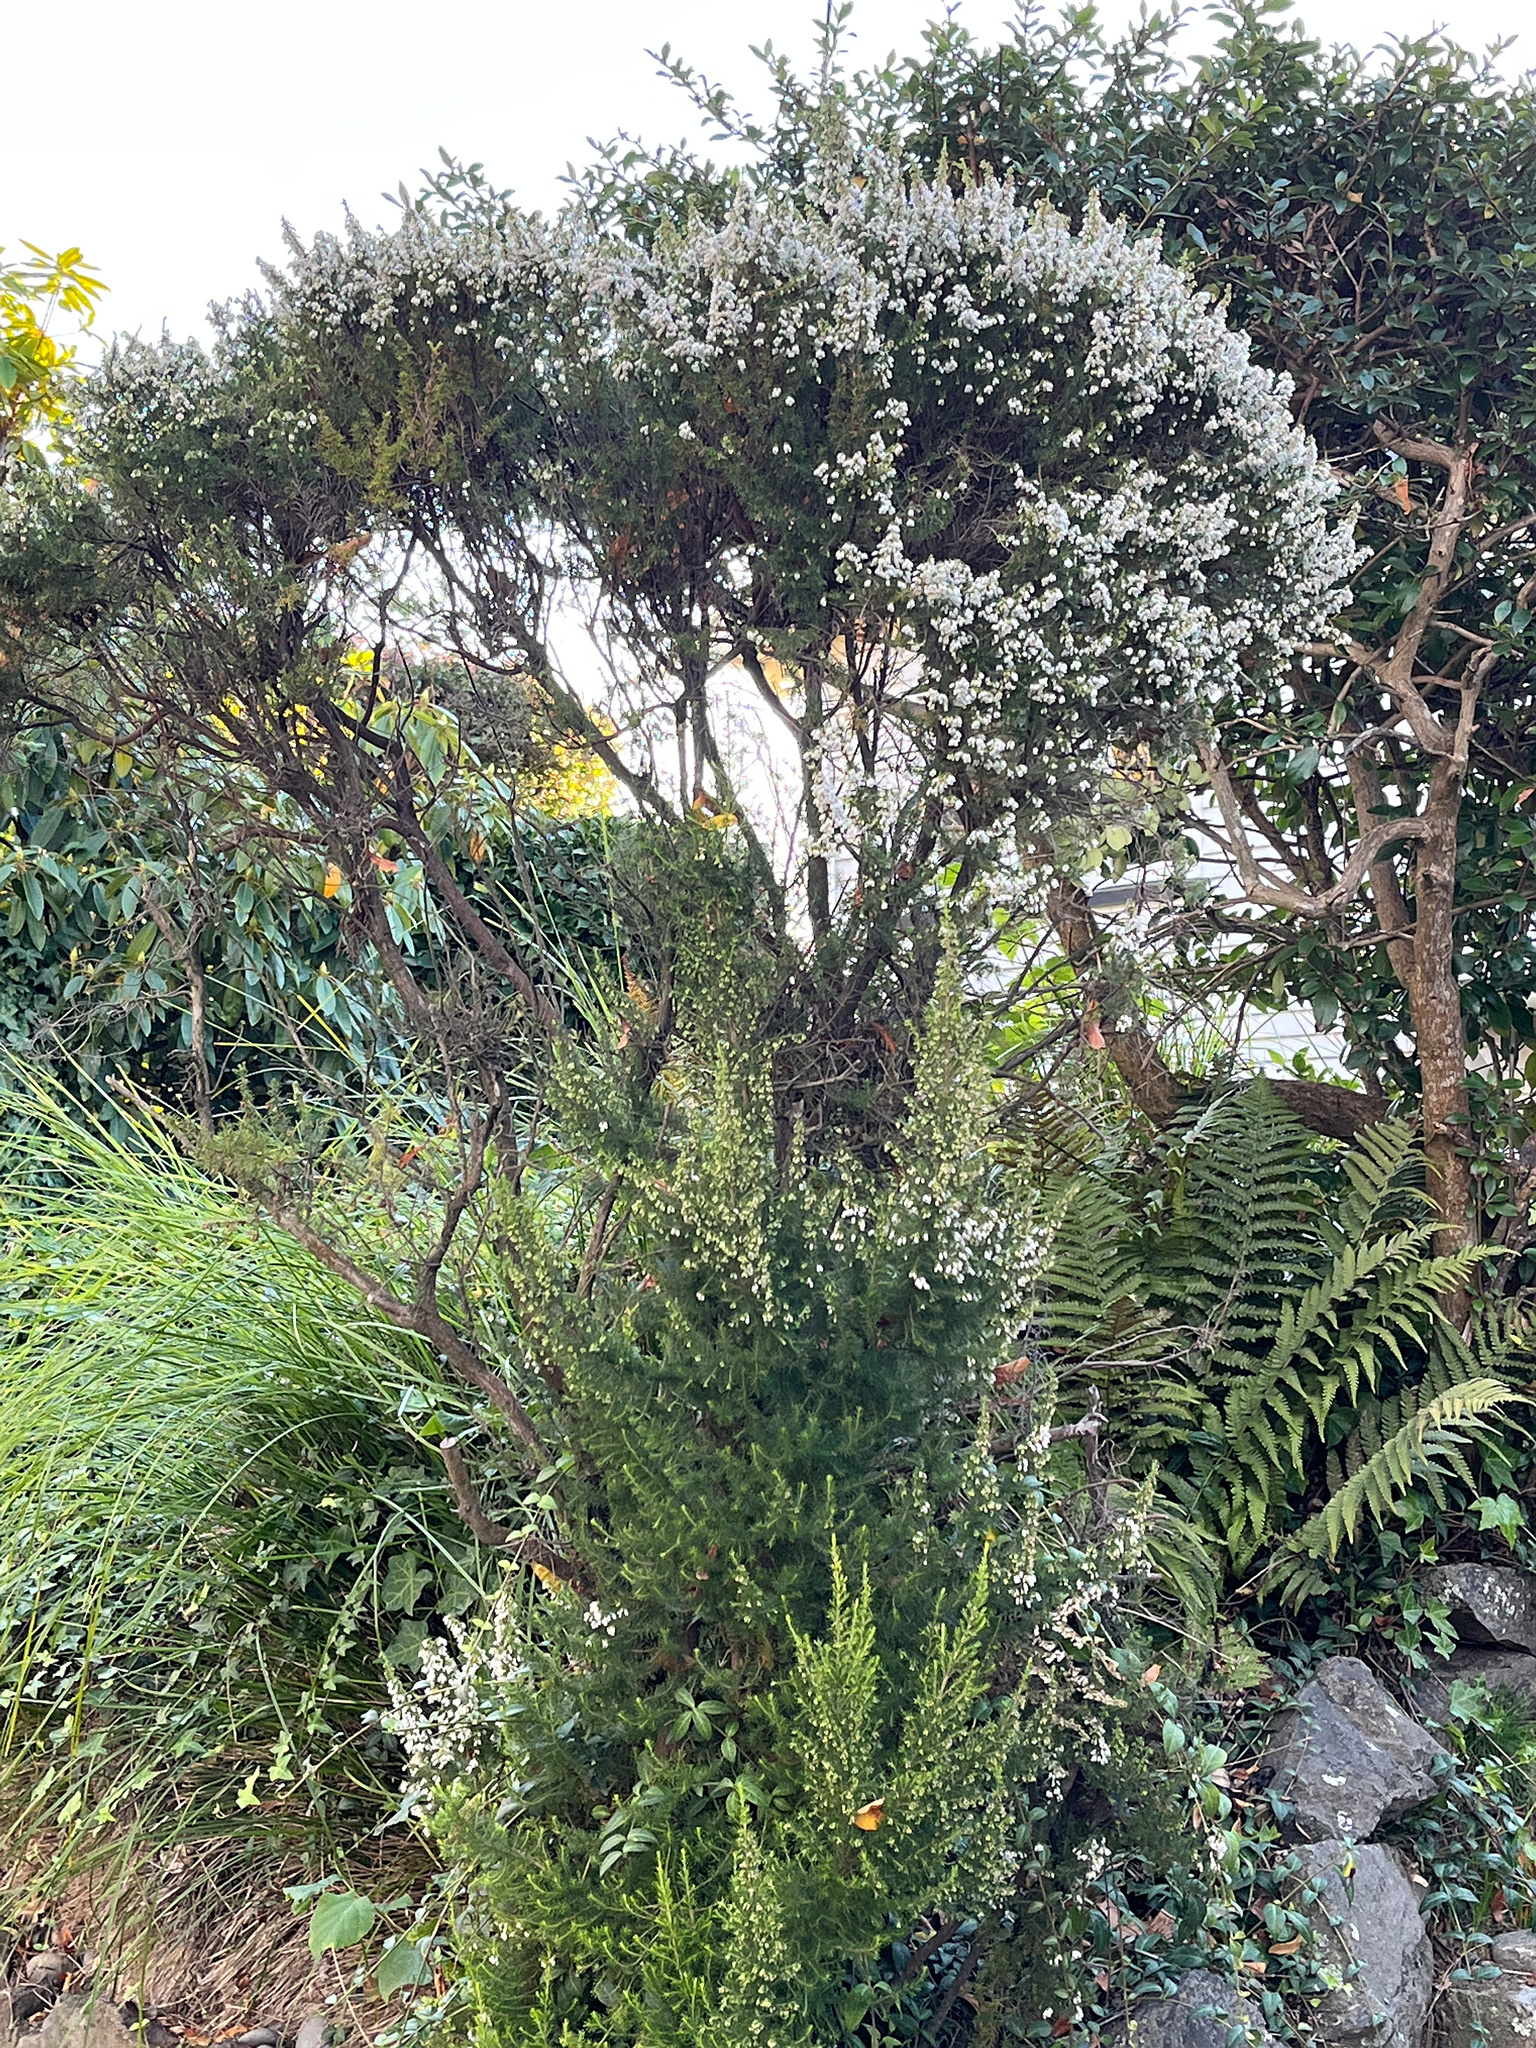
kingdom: Plantae
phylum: Tracheophyta
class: Magnoliopsida
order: Ericales
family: Ericaceae
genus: Erica
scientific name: Erica lusitanica
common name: Spanish heath
